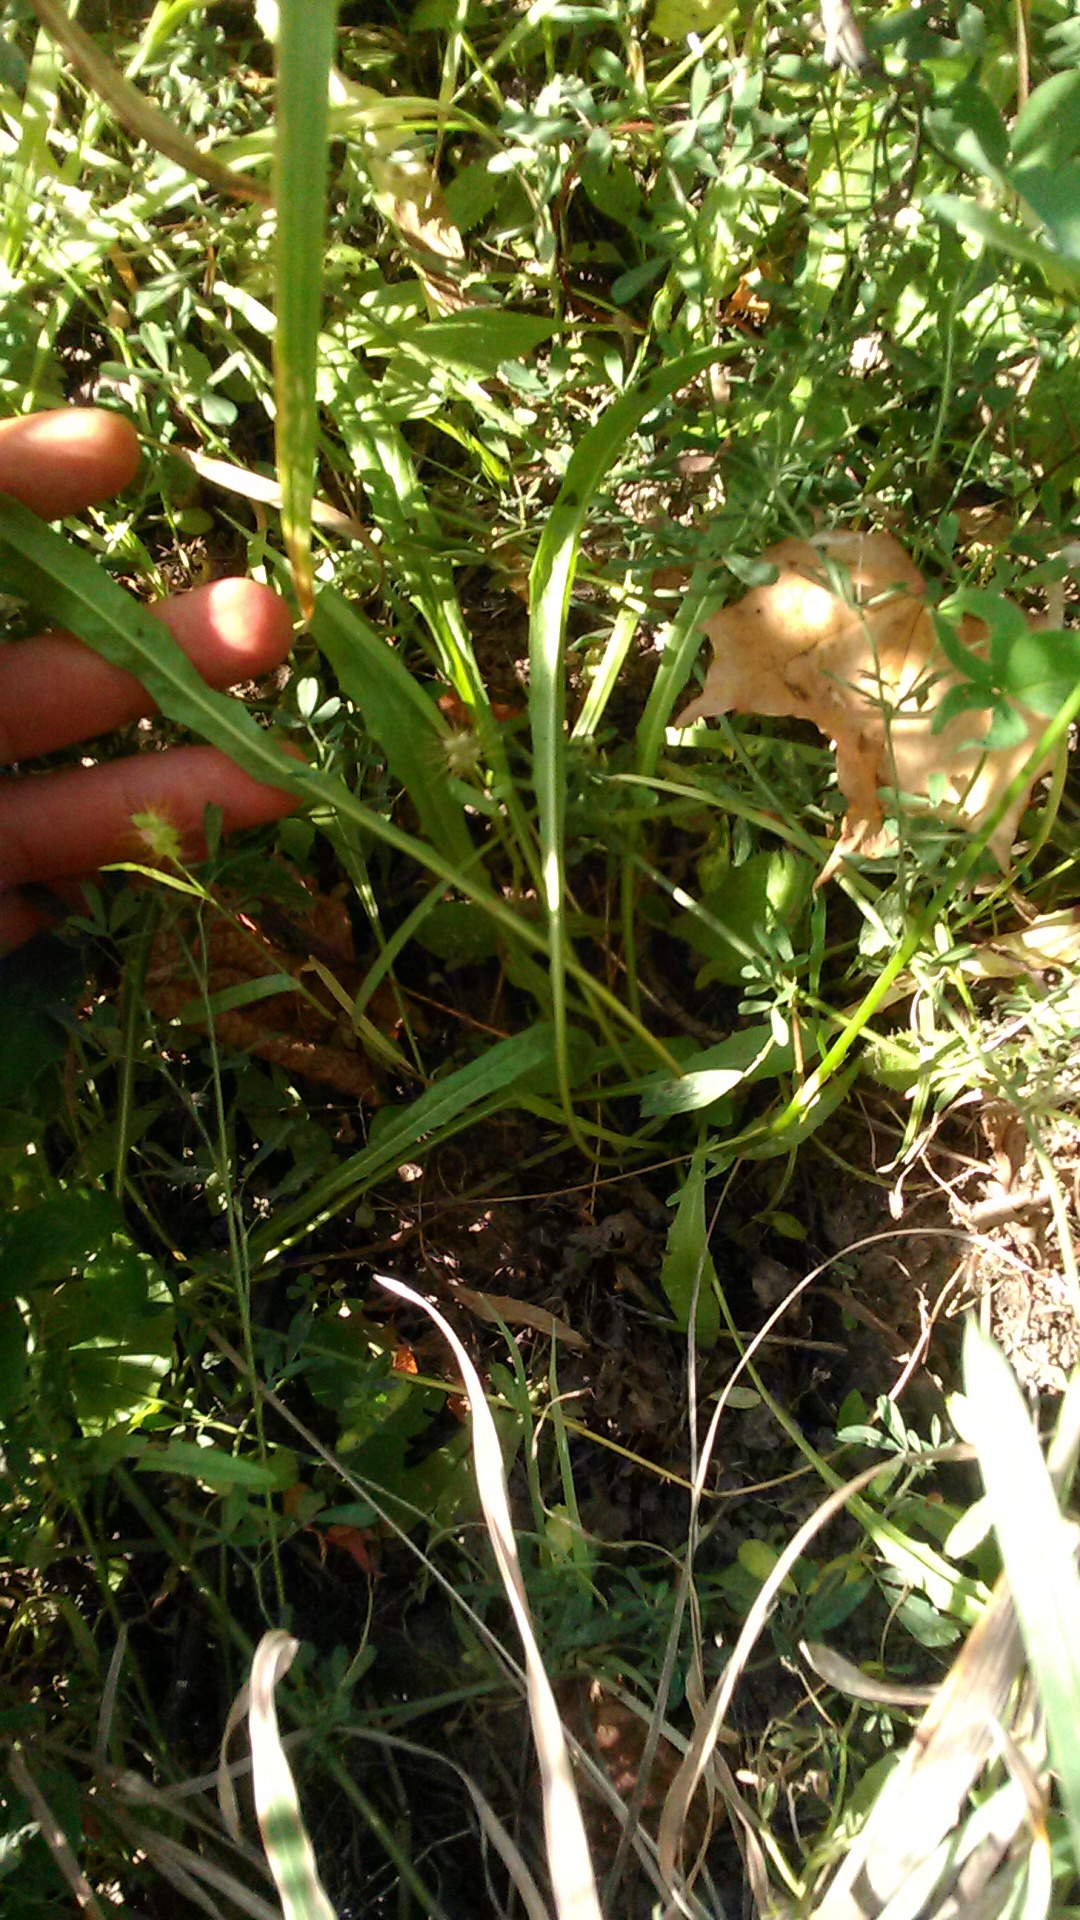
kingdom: Plantae
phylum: Tracheophyta
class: Magnoliopsida
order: Asterales
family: Asteraceae
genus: Scorzoneroides
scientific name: Scorzoneroides autumnalis
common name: Autumn hawkbit
